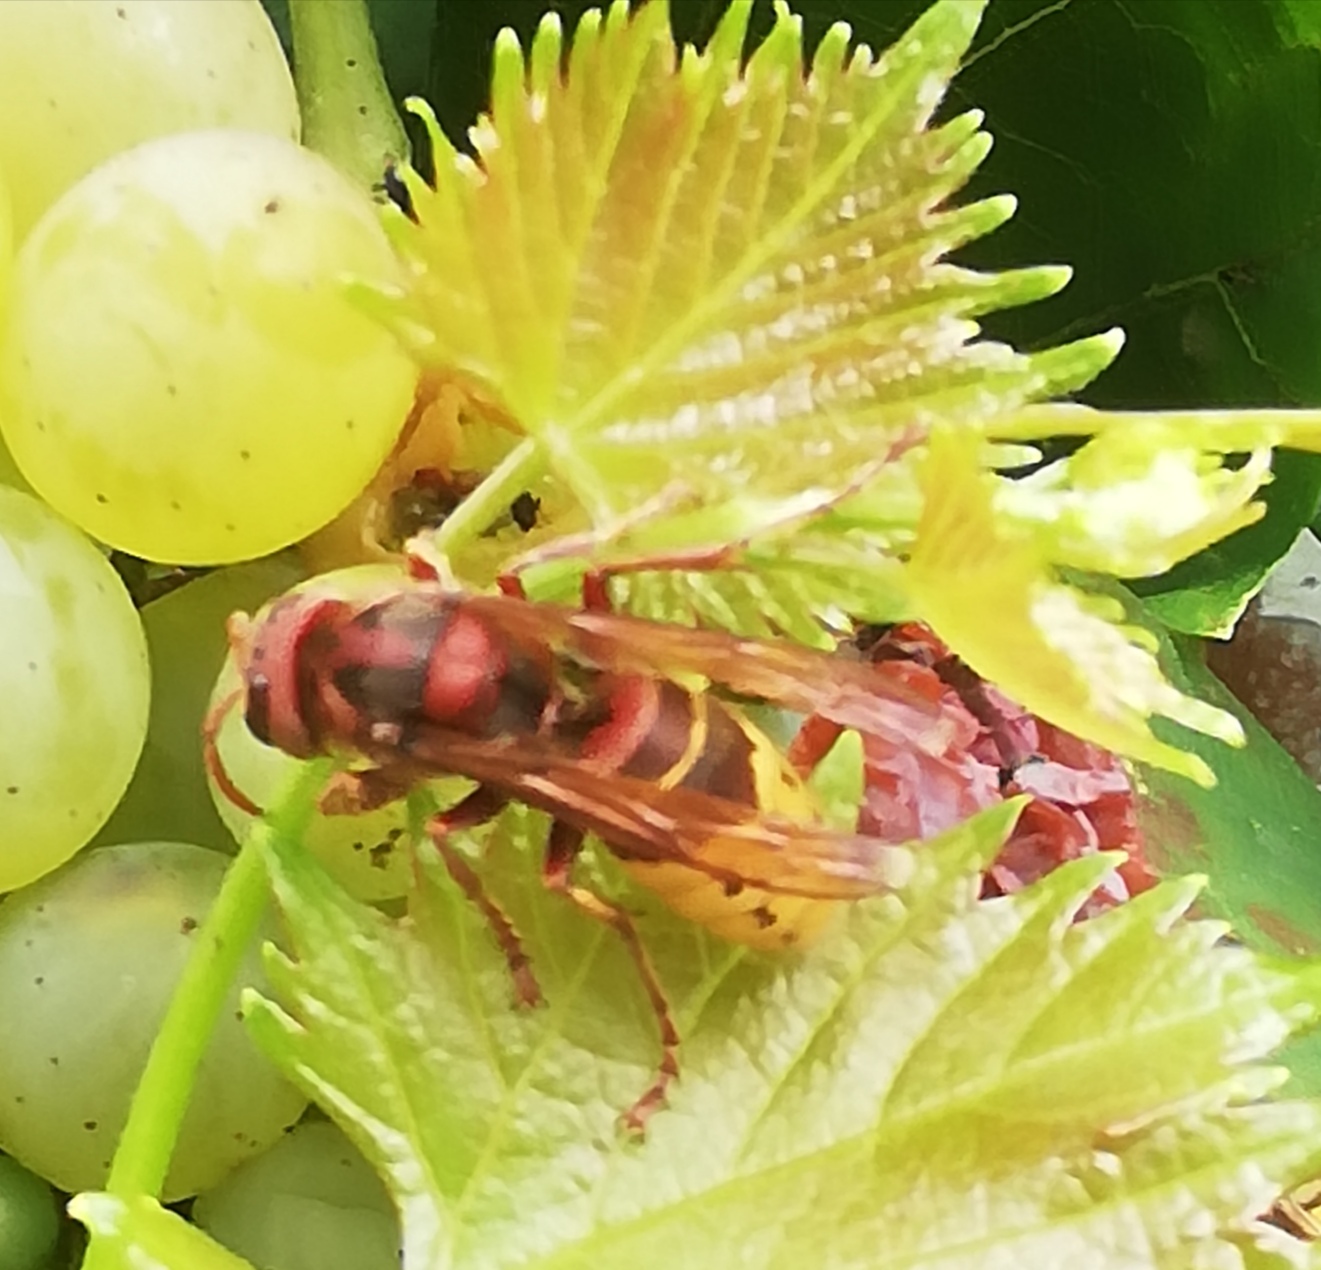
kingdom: Animalia
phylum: Arthropoda
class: Insecta
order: Hymenoptera
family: Vespidae
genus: Vespa
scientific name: Vespa crabro
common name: Hornet
